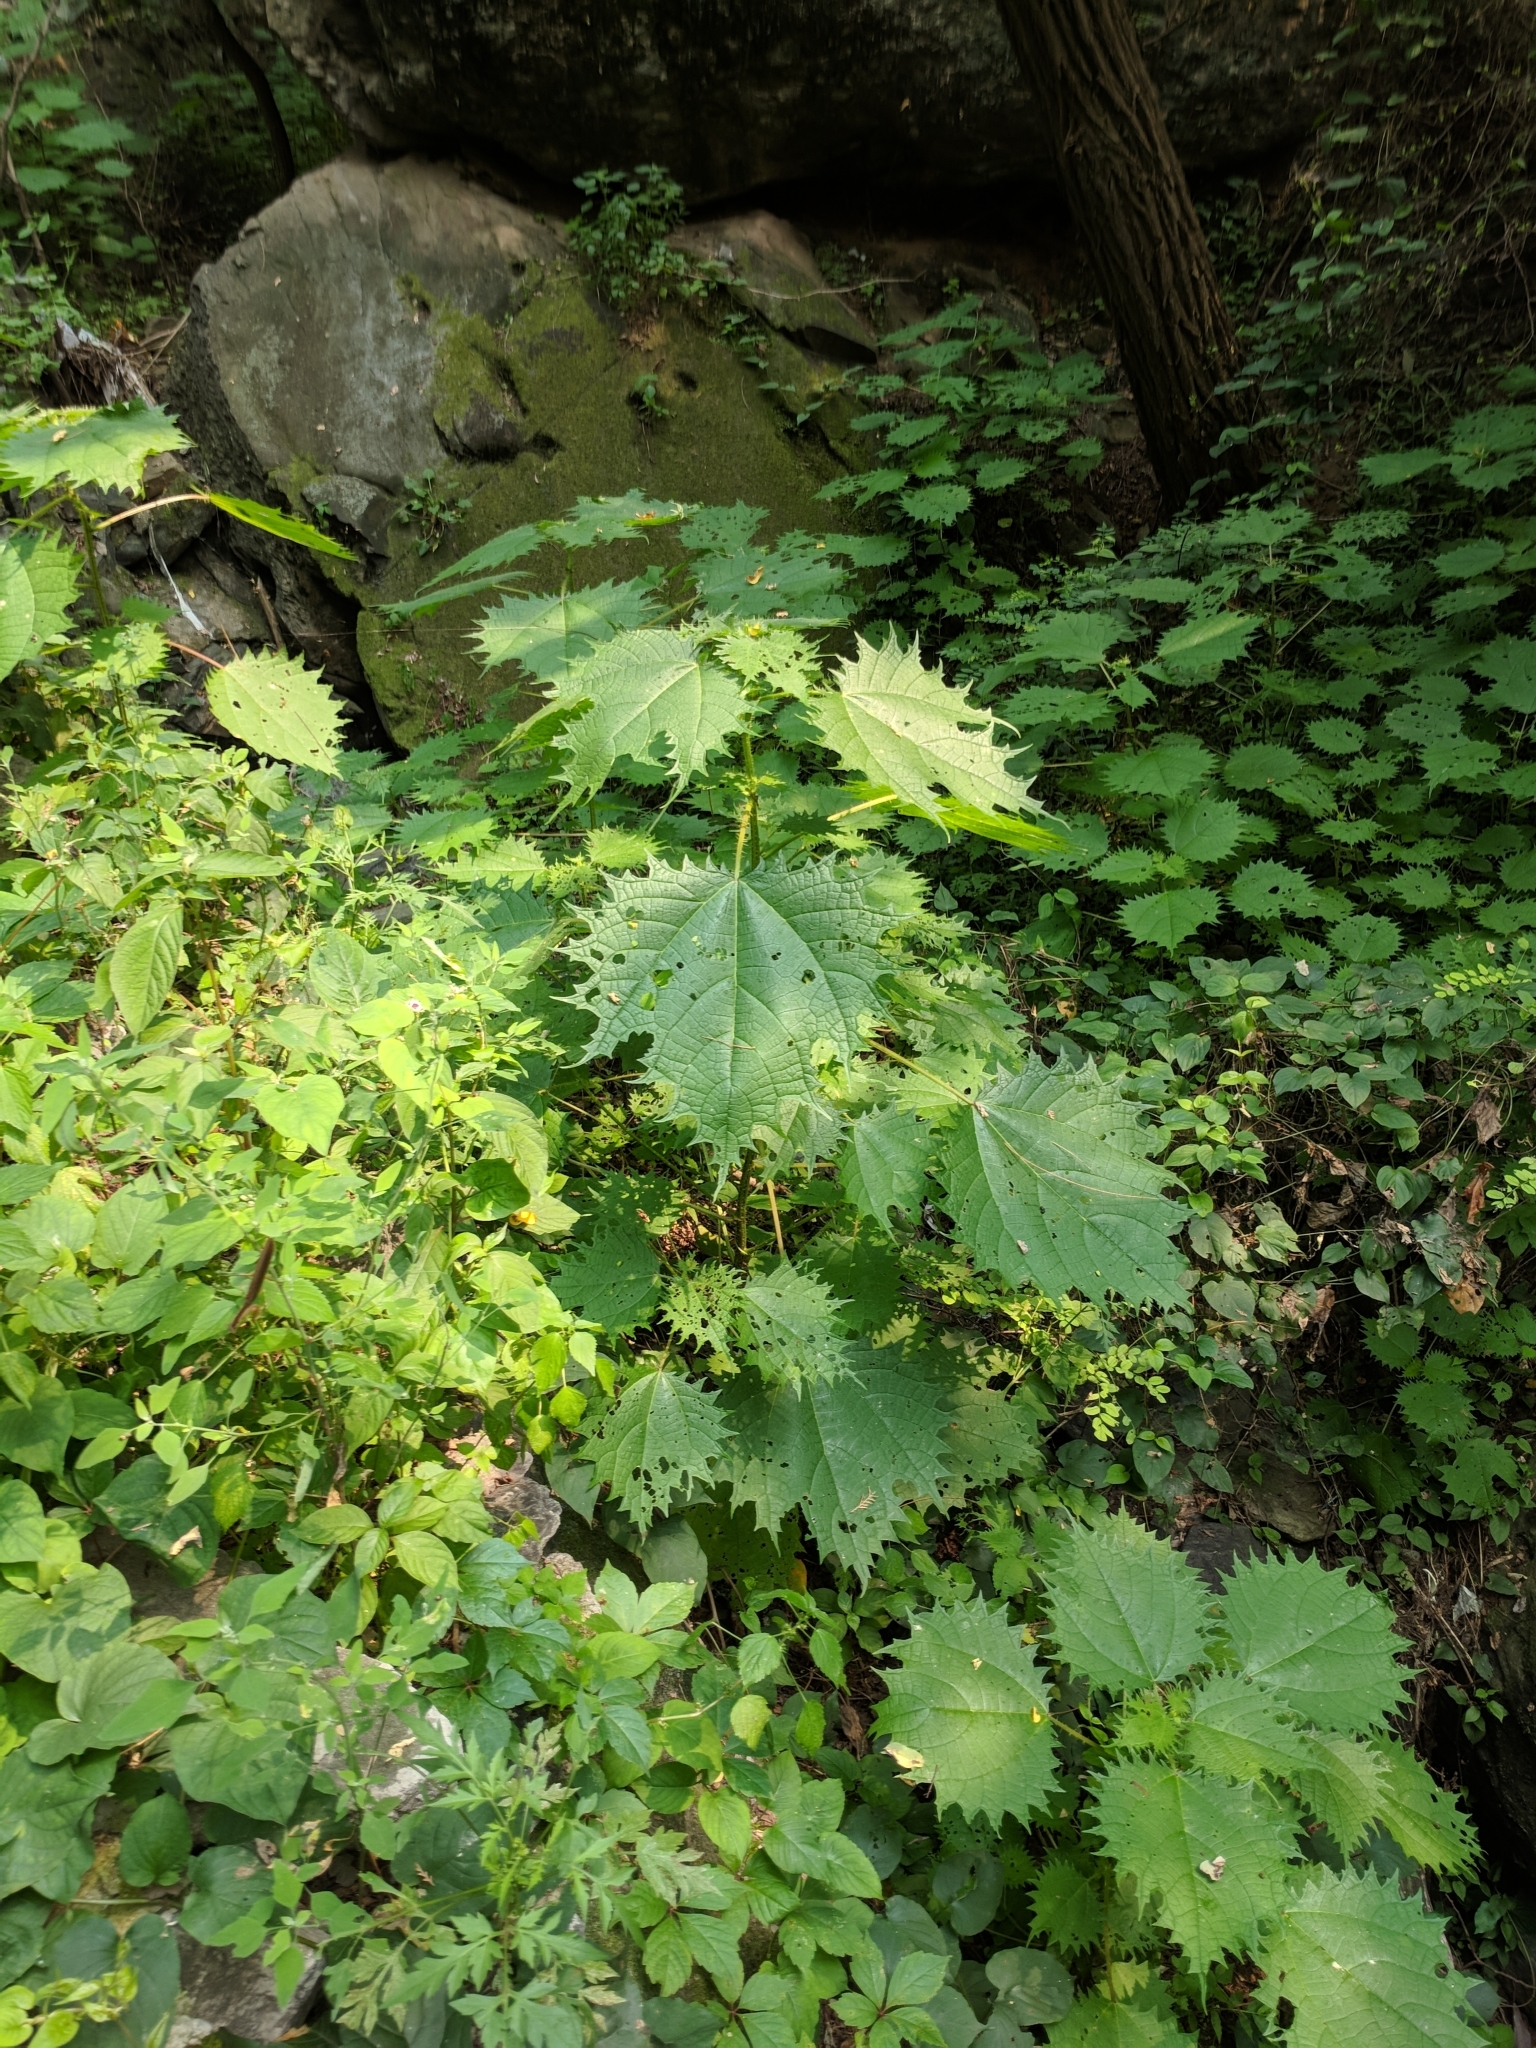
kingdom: Plantae
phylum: Tracheophyta
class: Magnoliopsida
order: Rosales
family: Urticaceae
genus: Girardinia
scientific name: Girardinia diversifolia
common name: Himalayan-nettle
